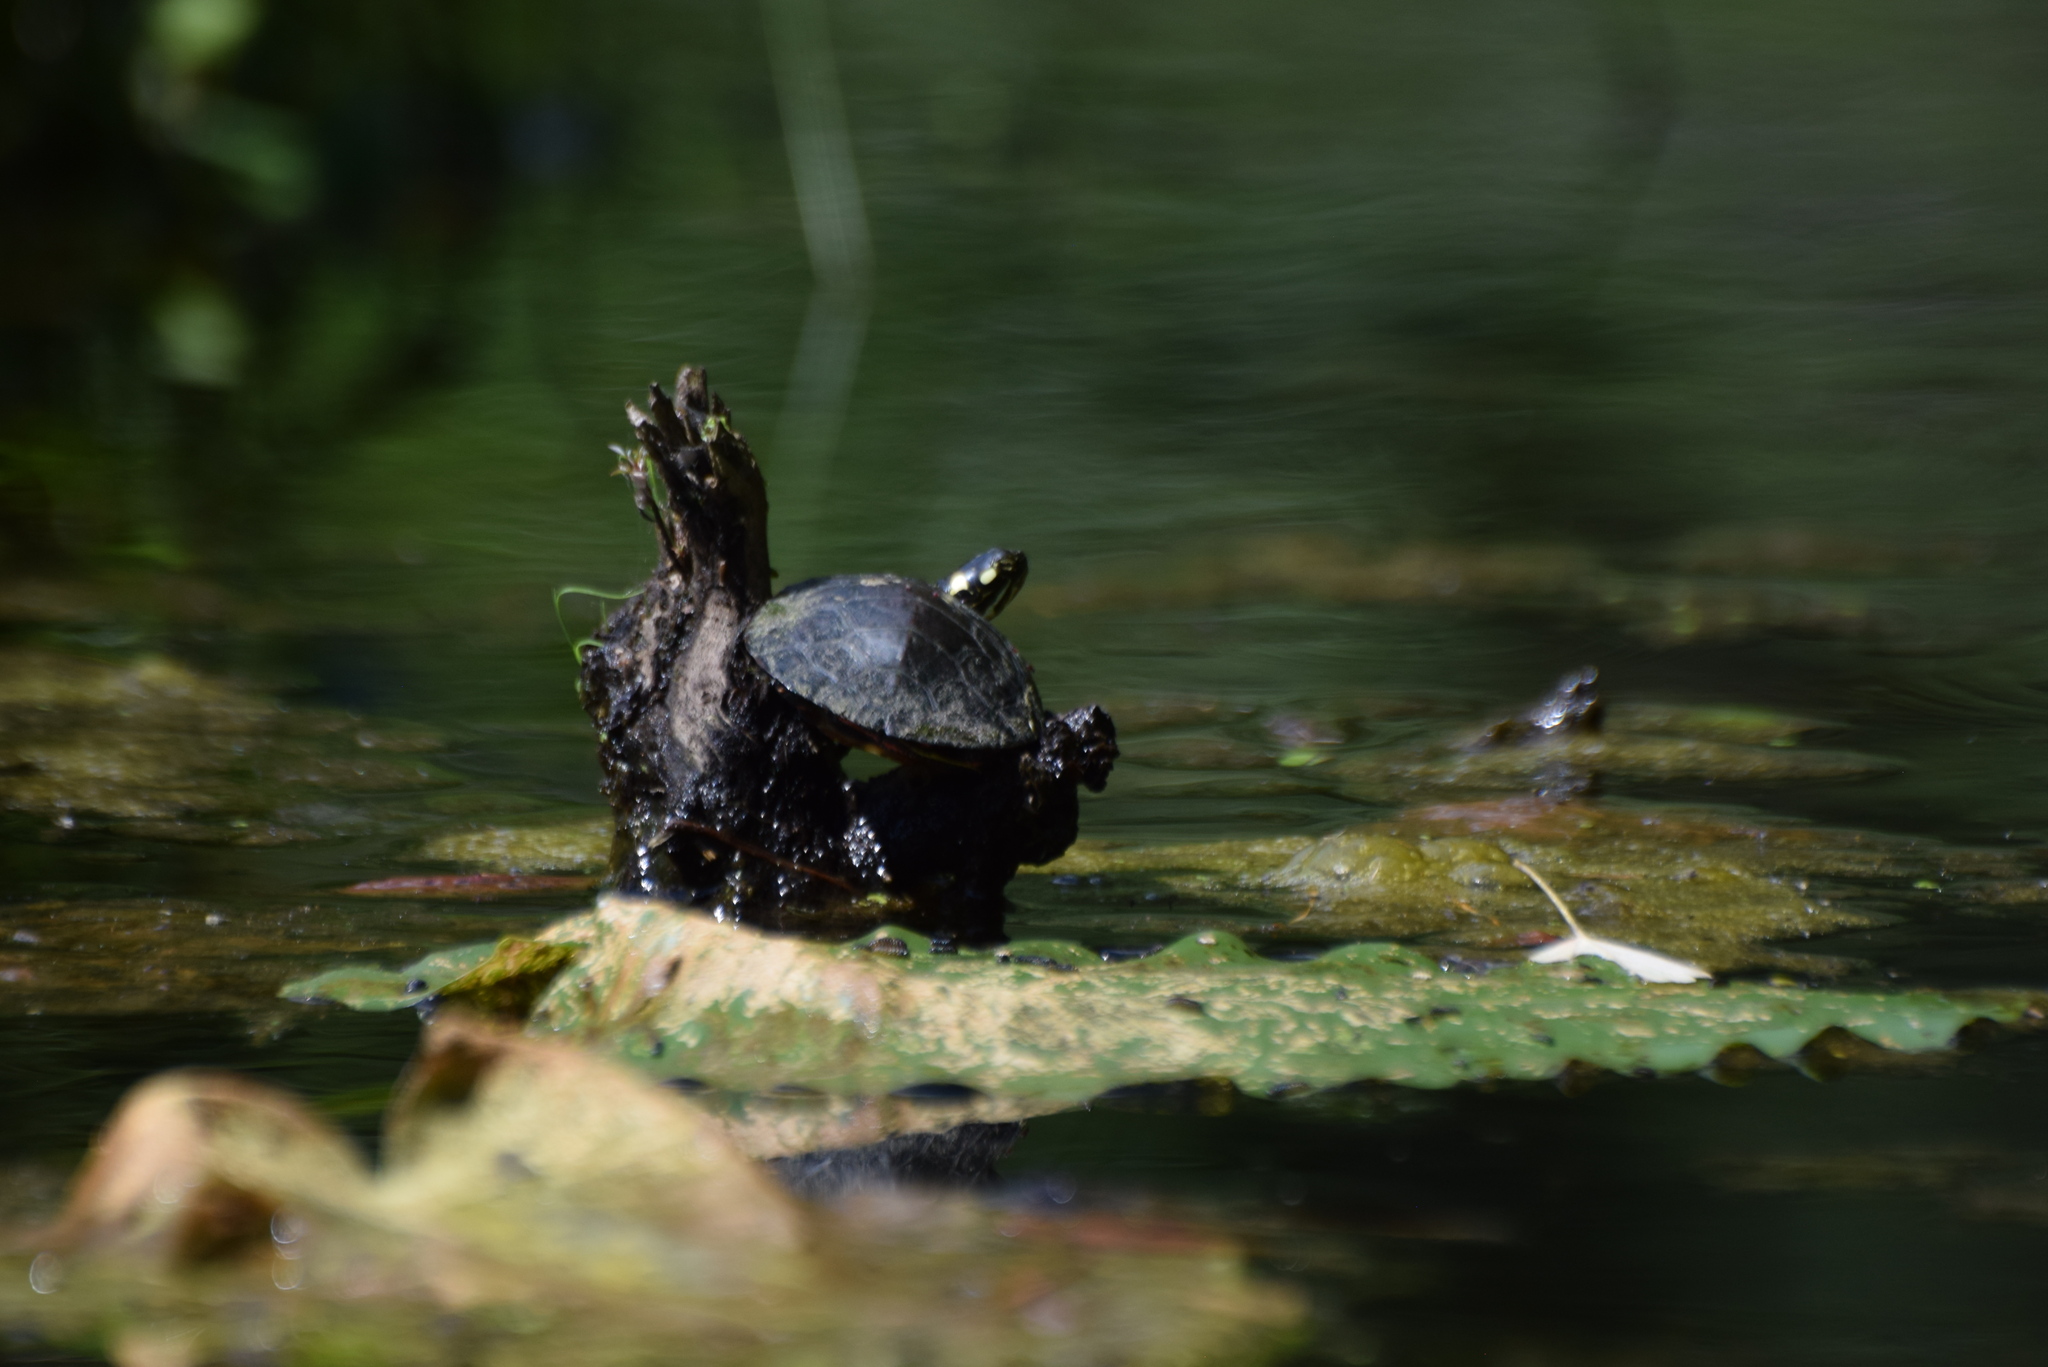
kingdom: Animalia
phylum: Chordata
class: Testudines
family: Emydidae
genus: Chrysemys
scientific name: Chrysemys picta
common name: Painted turtle
